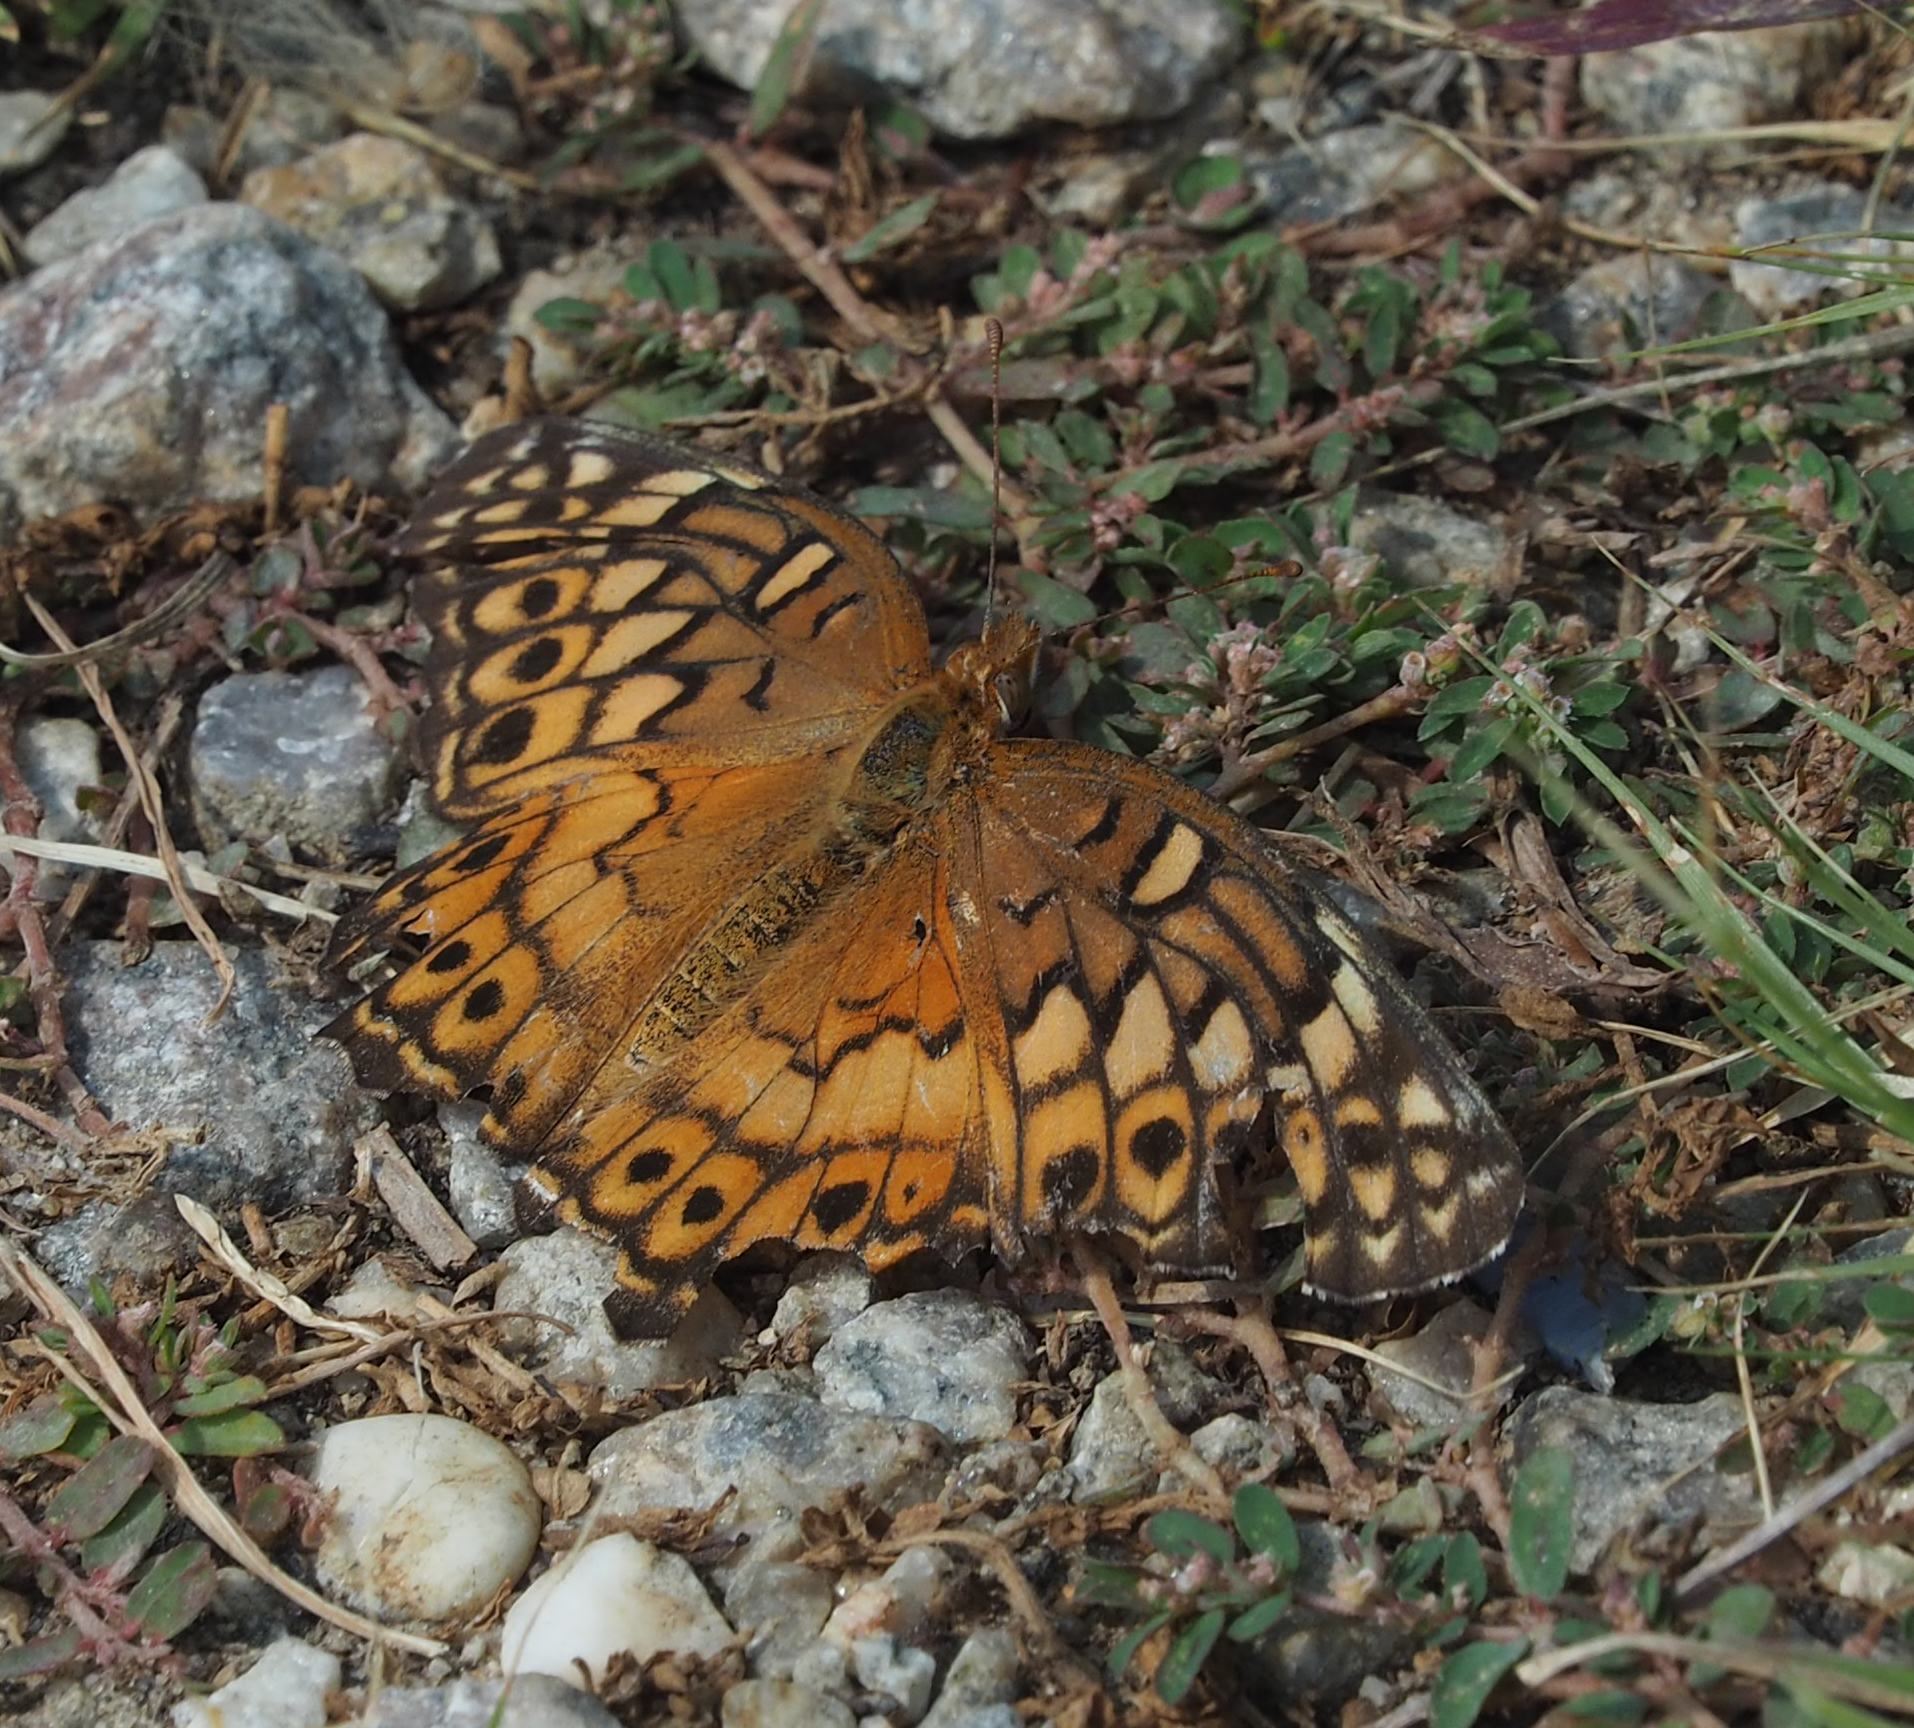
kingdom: Animalia
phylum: Arthropoda
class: Insecta
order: Lepidoptera
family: Nymphalidae
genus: Euptoieta
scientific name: Euptoieta claudia
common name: Variegated fritillary
